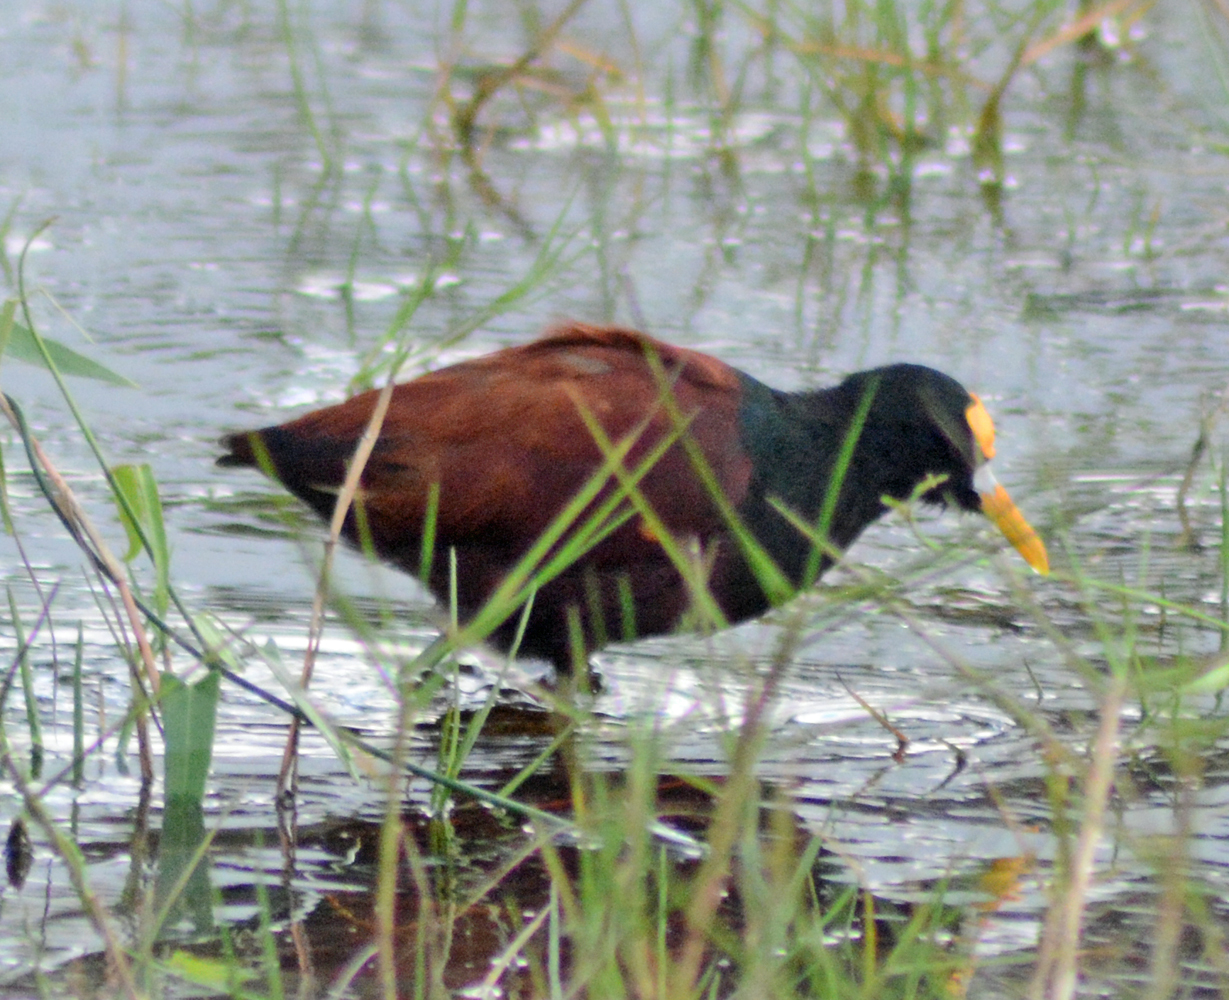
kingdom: Animalia
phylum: Chordata
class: Aves
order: Charadriiformes
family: Jacanidae
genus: Jacana
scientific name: Jacana spinosa
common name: Northern jacana
